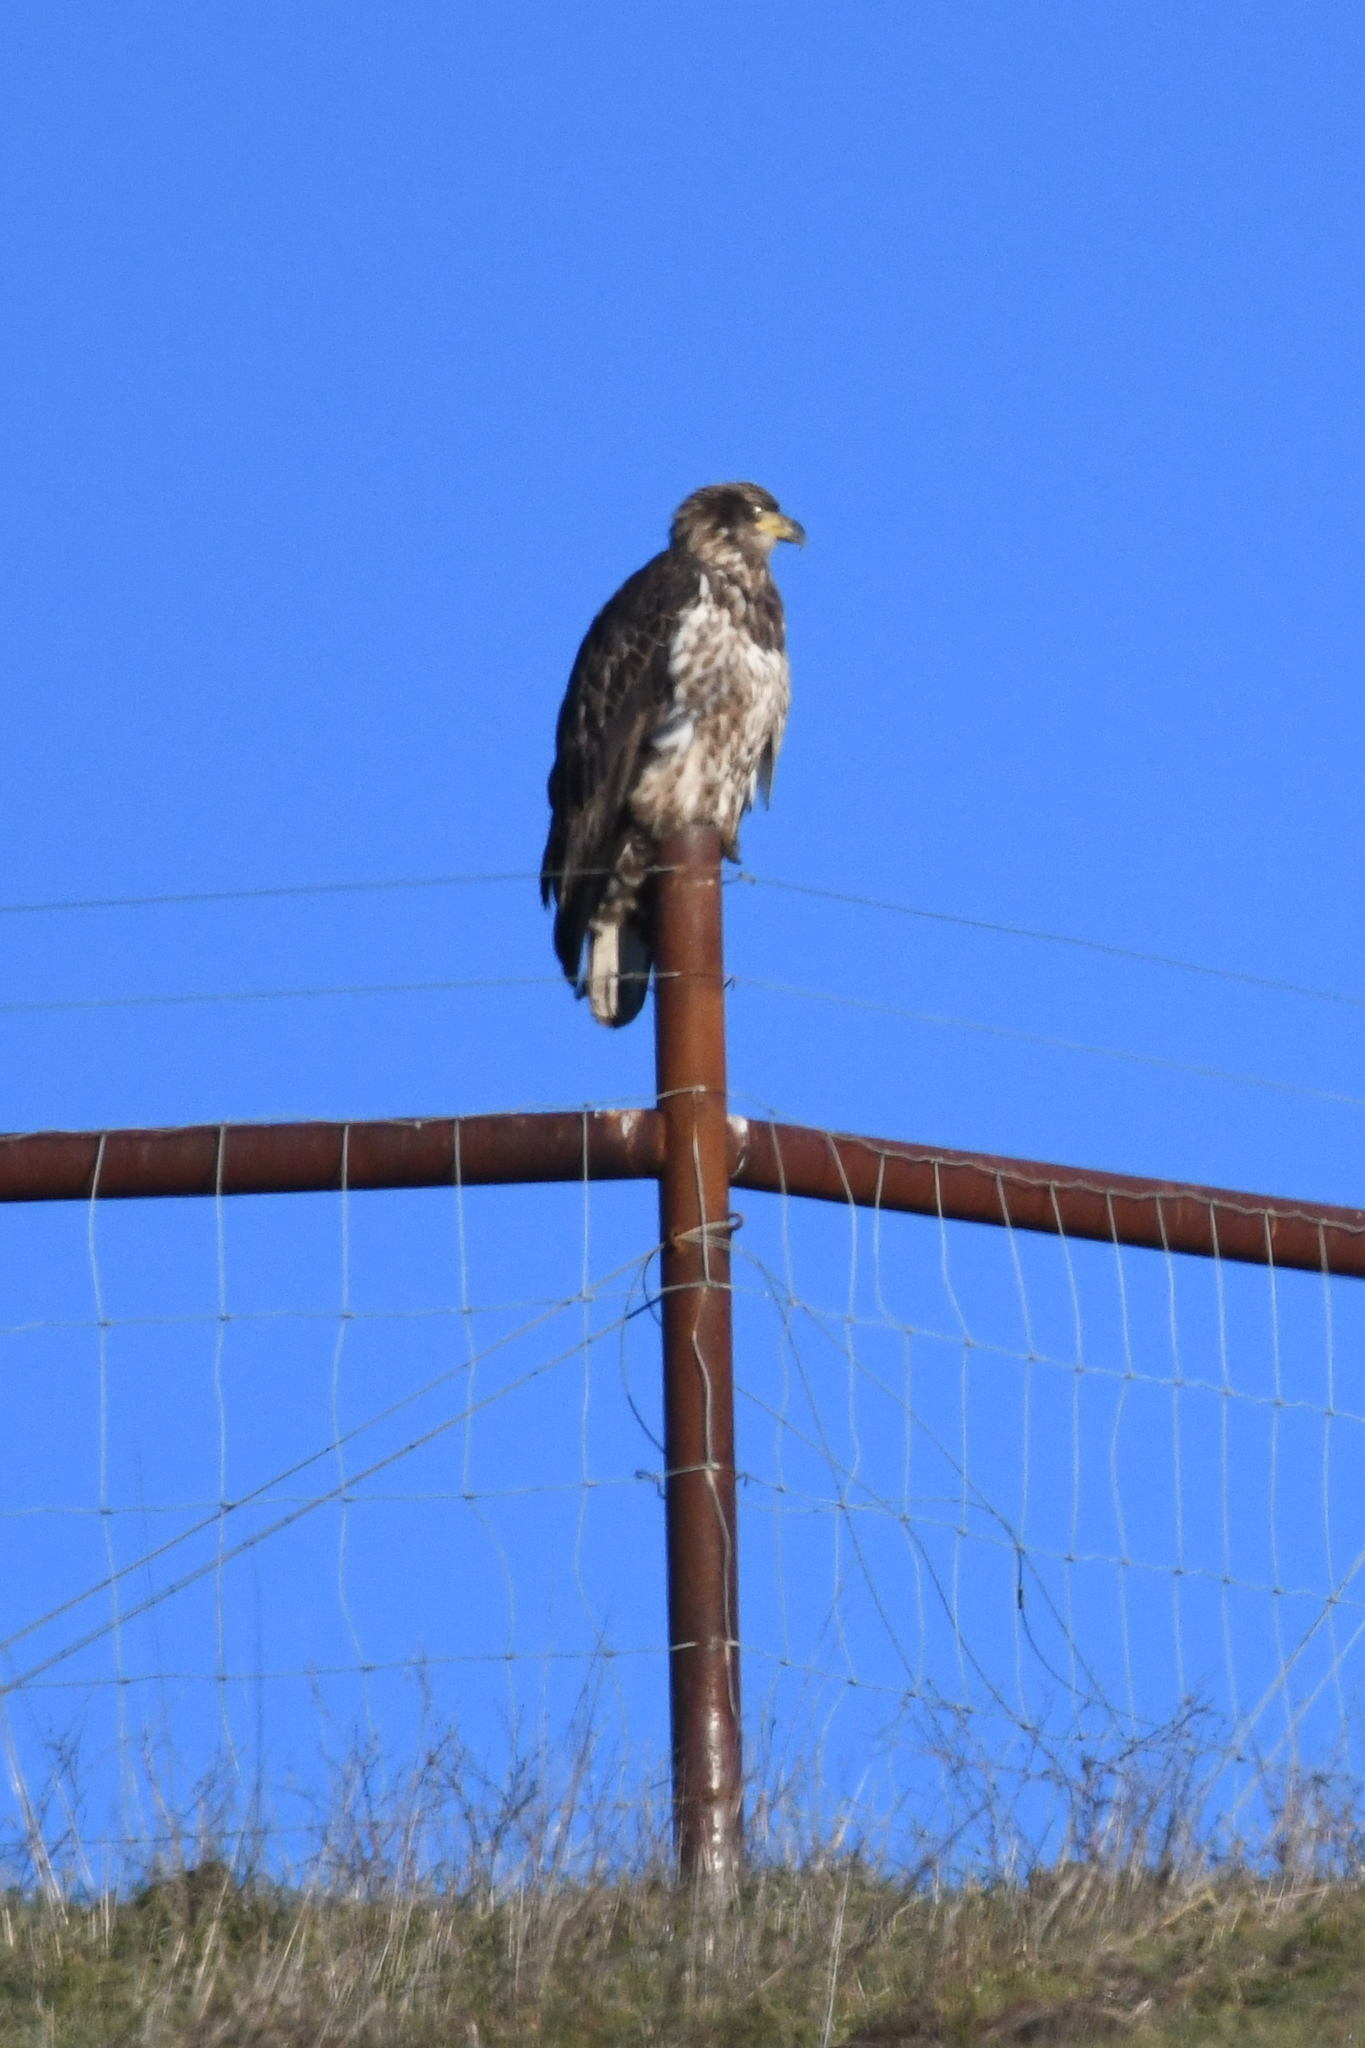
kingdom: Animalia
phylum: Chordata
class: Aves
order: Accipitriformes
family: Accipitridae
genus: Haliaeetus
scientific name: Haliaeetus leucocephalus
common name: Bald eagle
